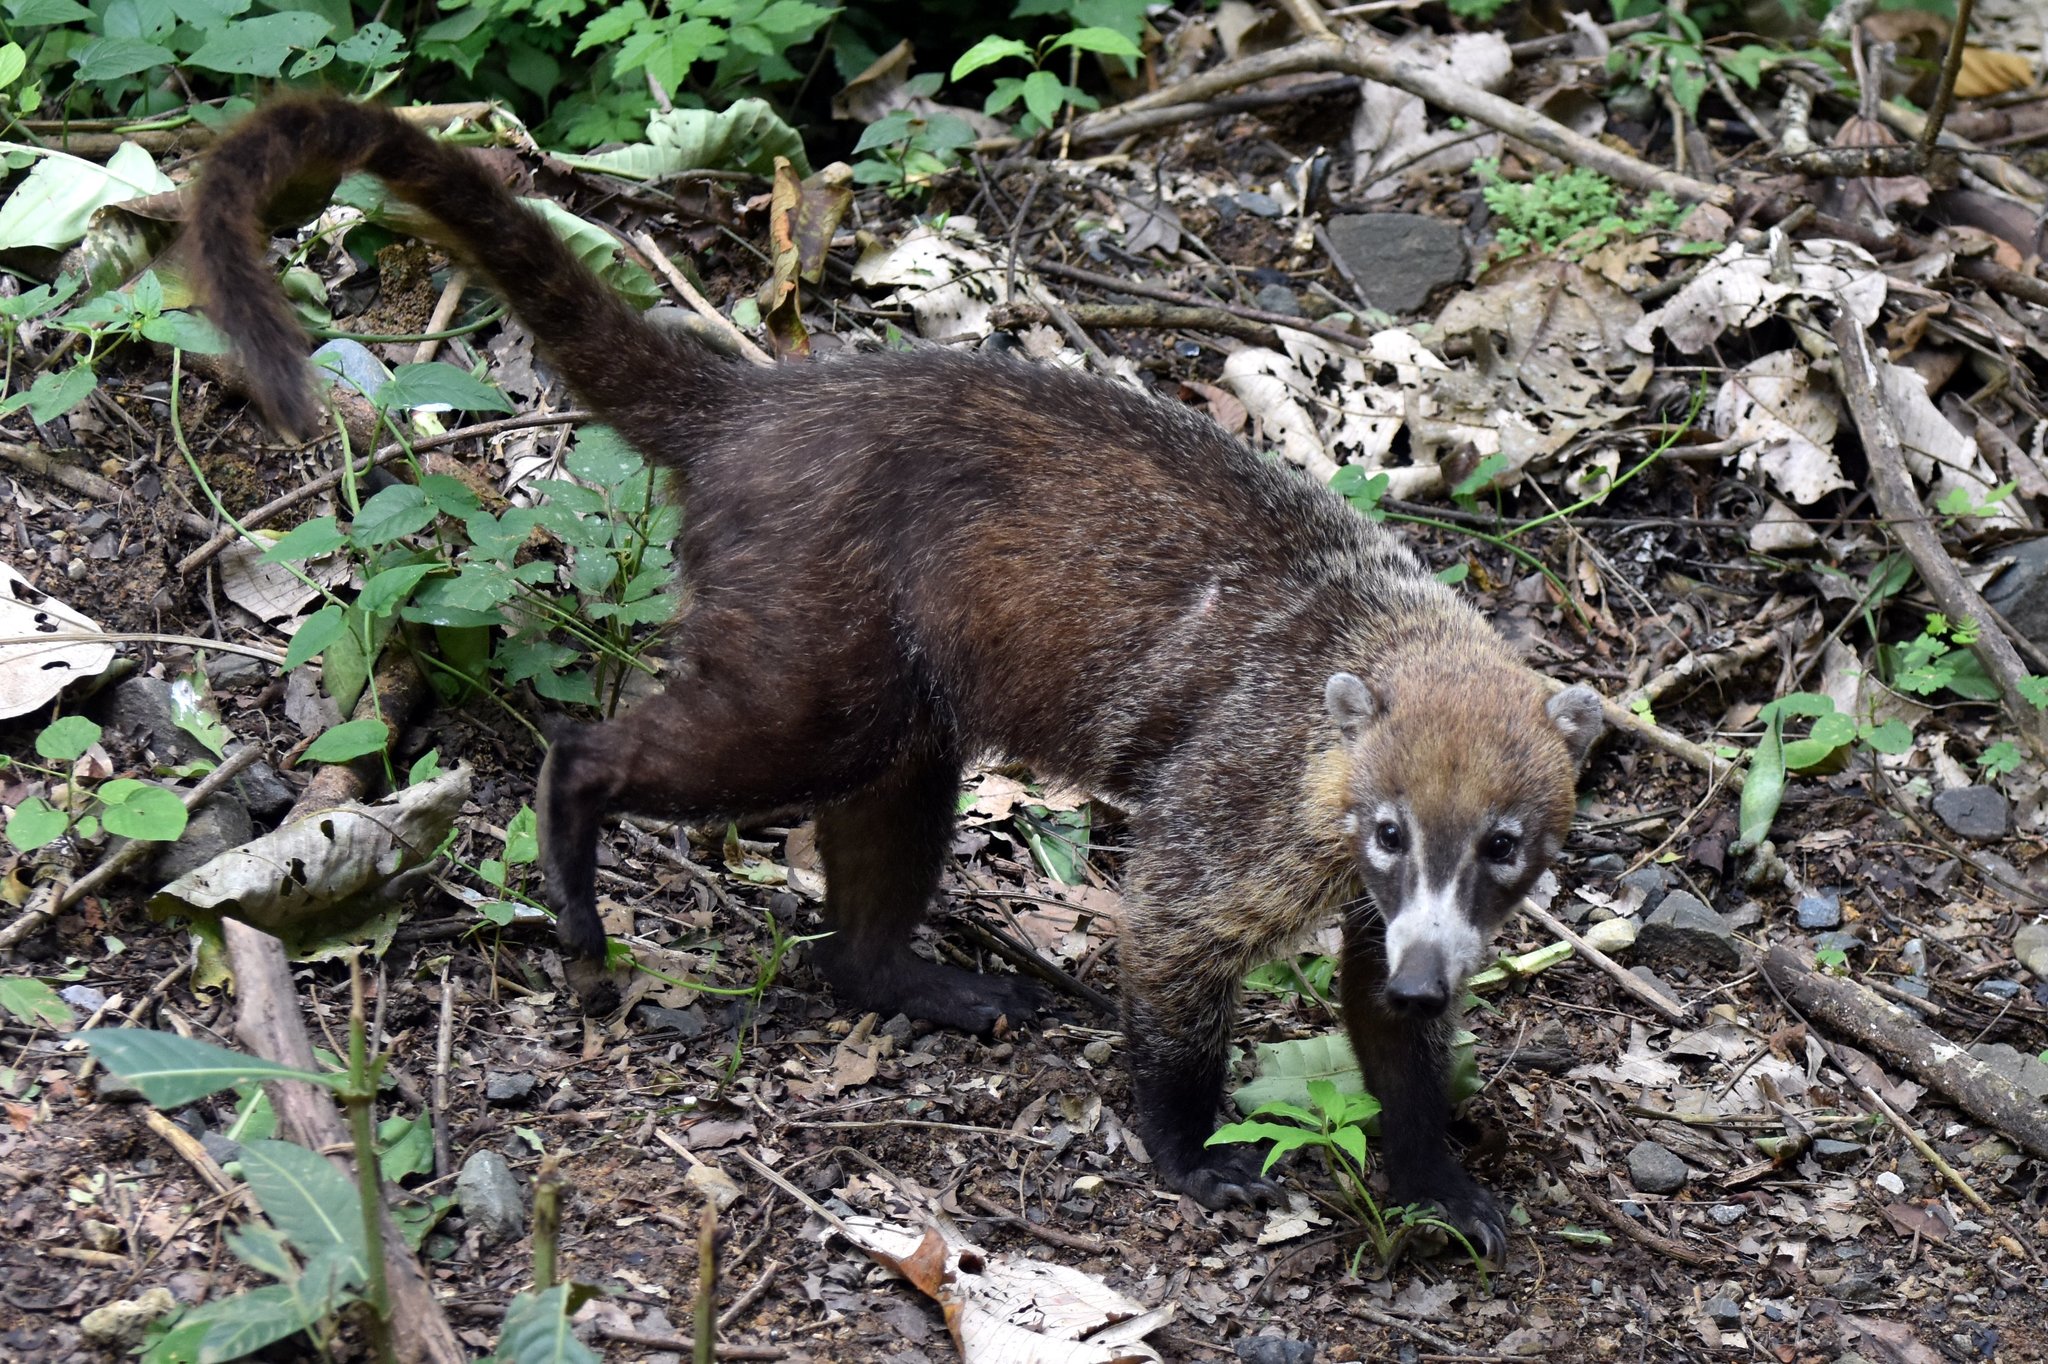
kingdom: Animalia
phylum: Chordata
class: Mammalia
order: Carnivora
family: Procyonidae
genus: Nasua
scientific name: Nasua narica
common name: White-nosed coati
